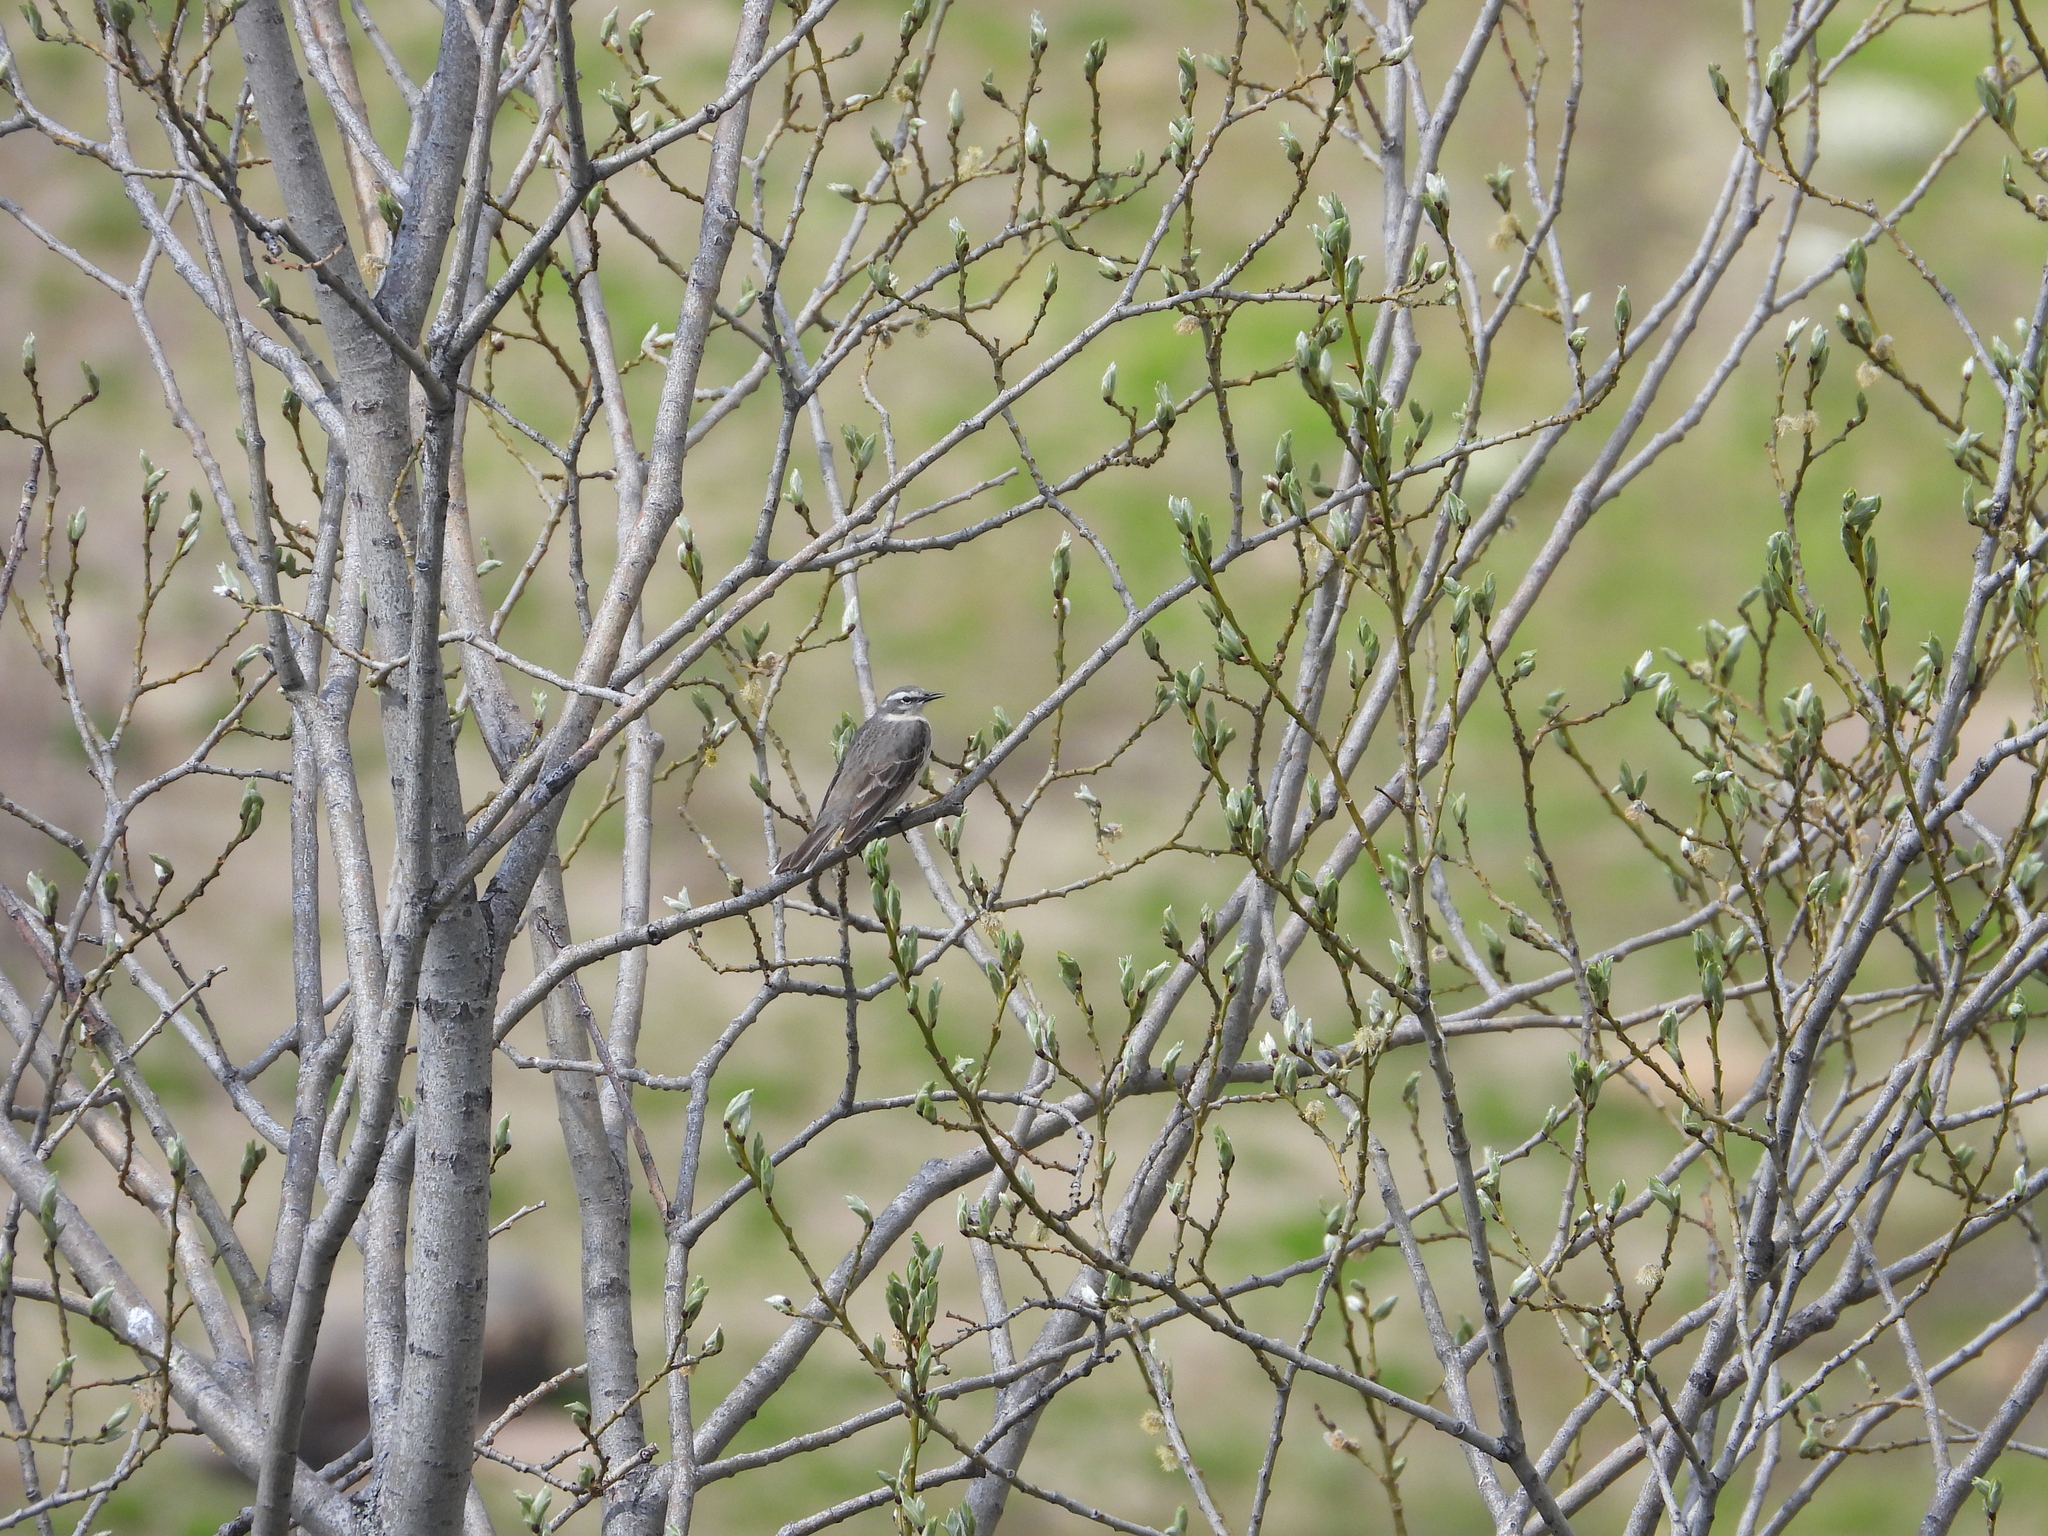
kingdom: Animalia
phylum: Chordata
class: Aves
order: Passeriformes
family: Motacillidae
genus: Anthus
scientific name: Anthus spinoletta
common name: Water pipit
